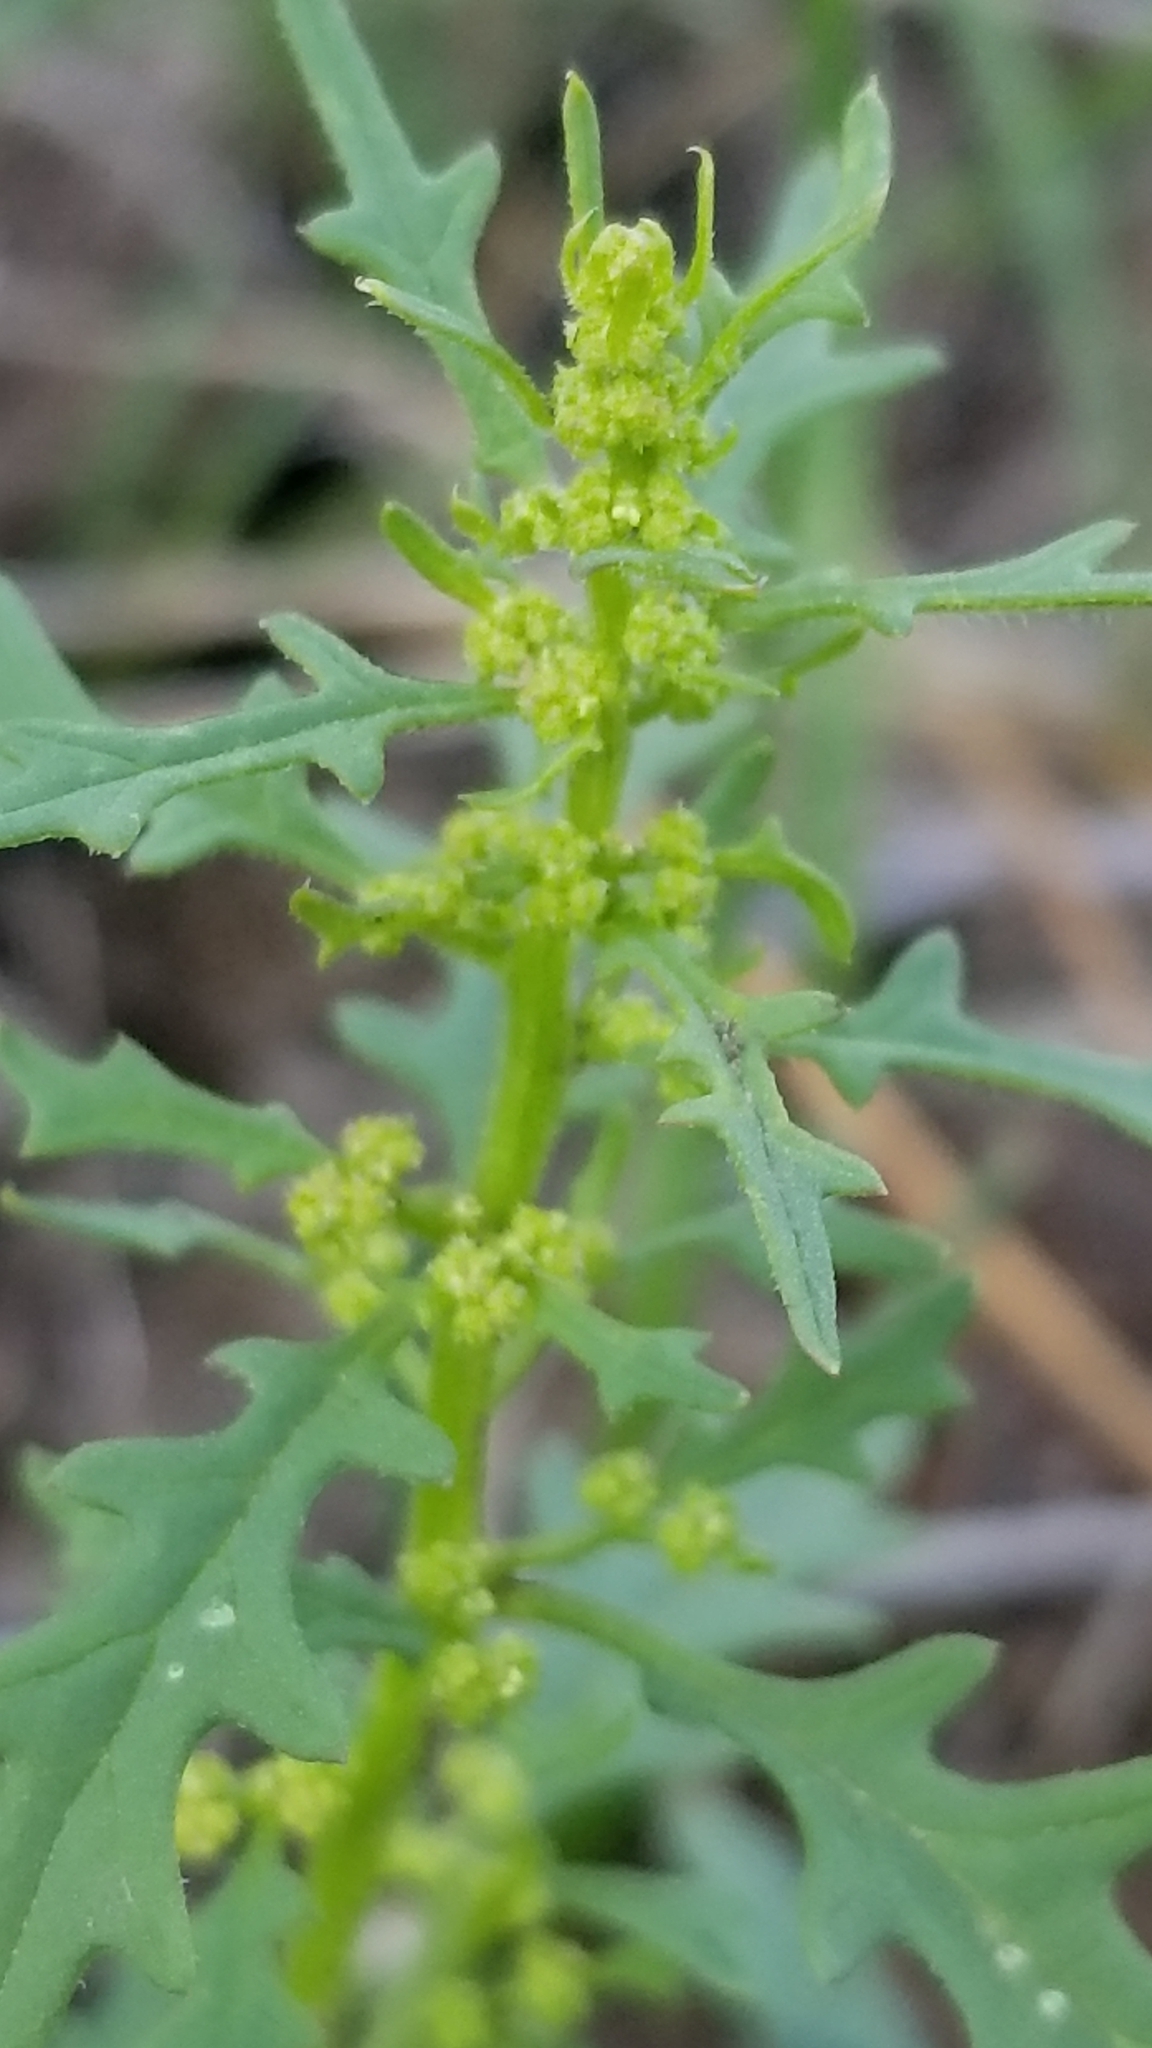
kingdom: Plantae
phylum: Tracheophyta
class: Magnoliopsida
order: Caryophyllales
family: Amaranthaceae
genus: Dysphania
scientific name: Dysphania incisa
